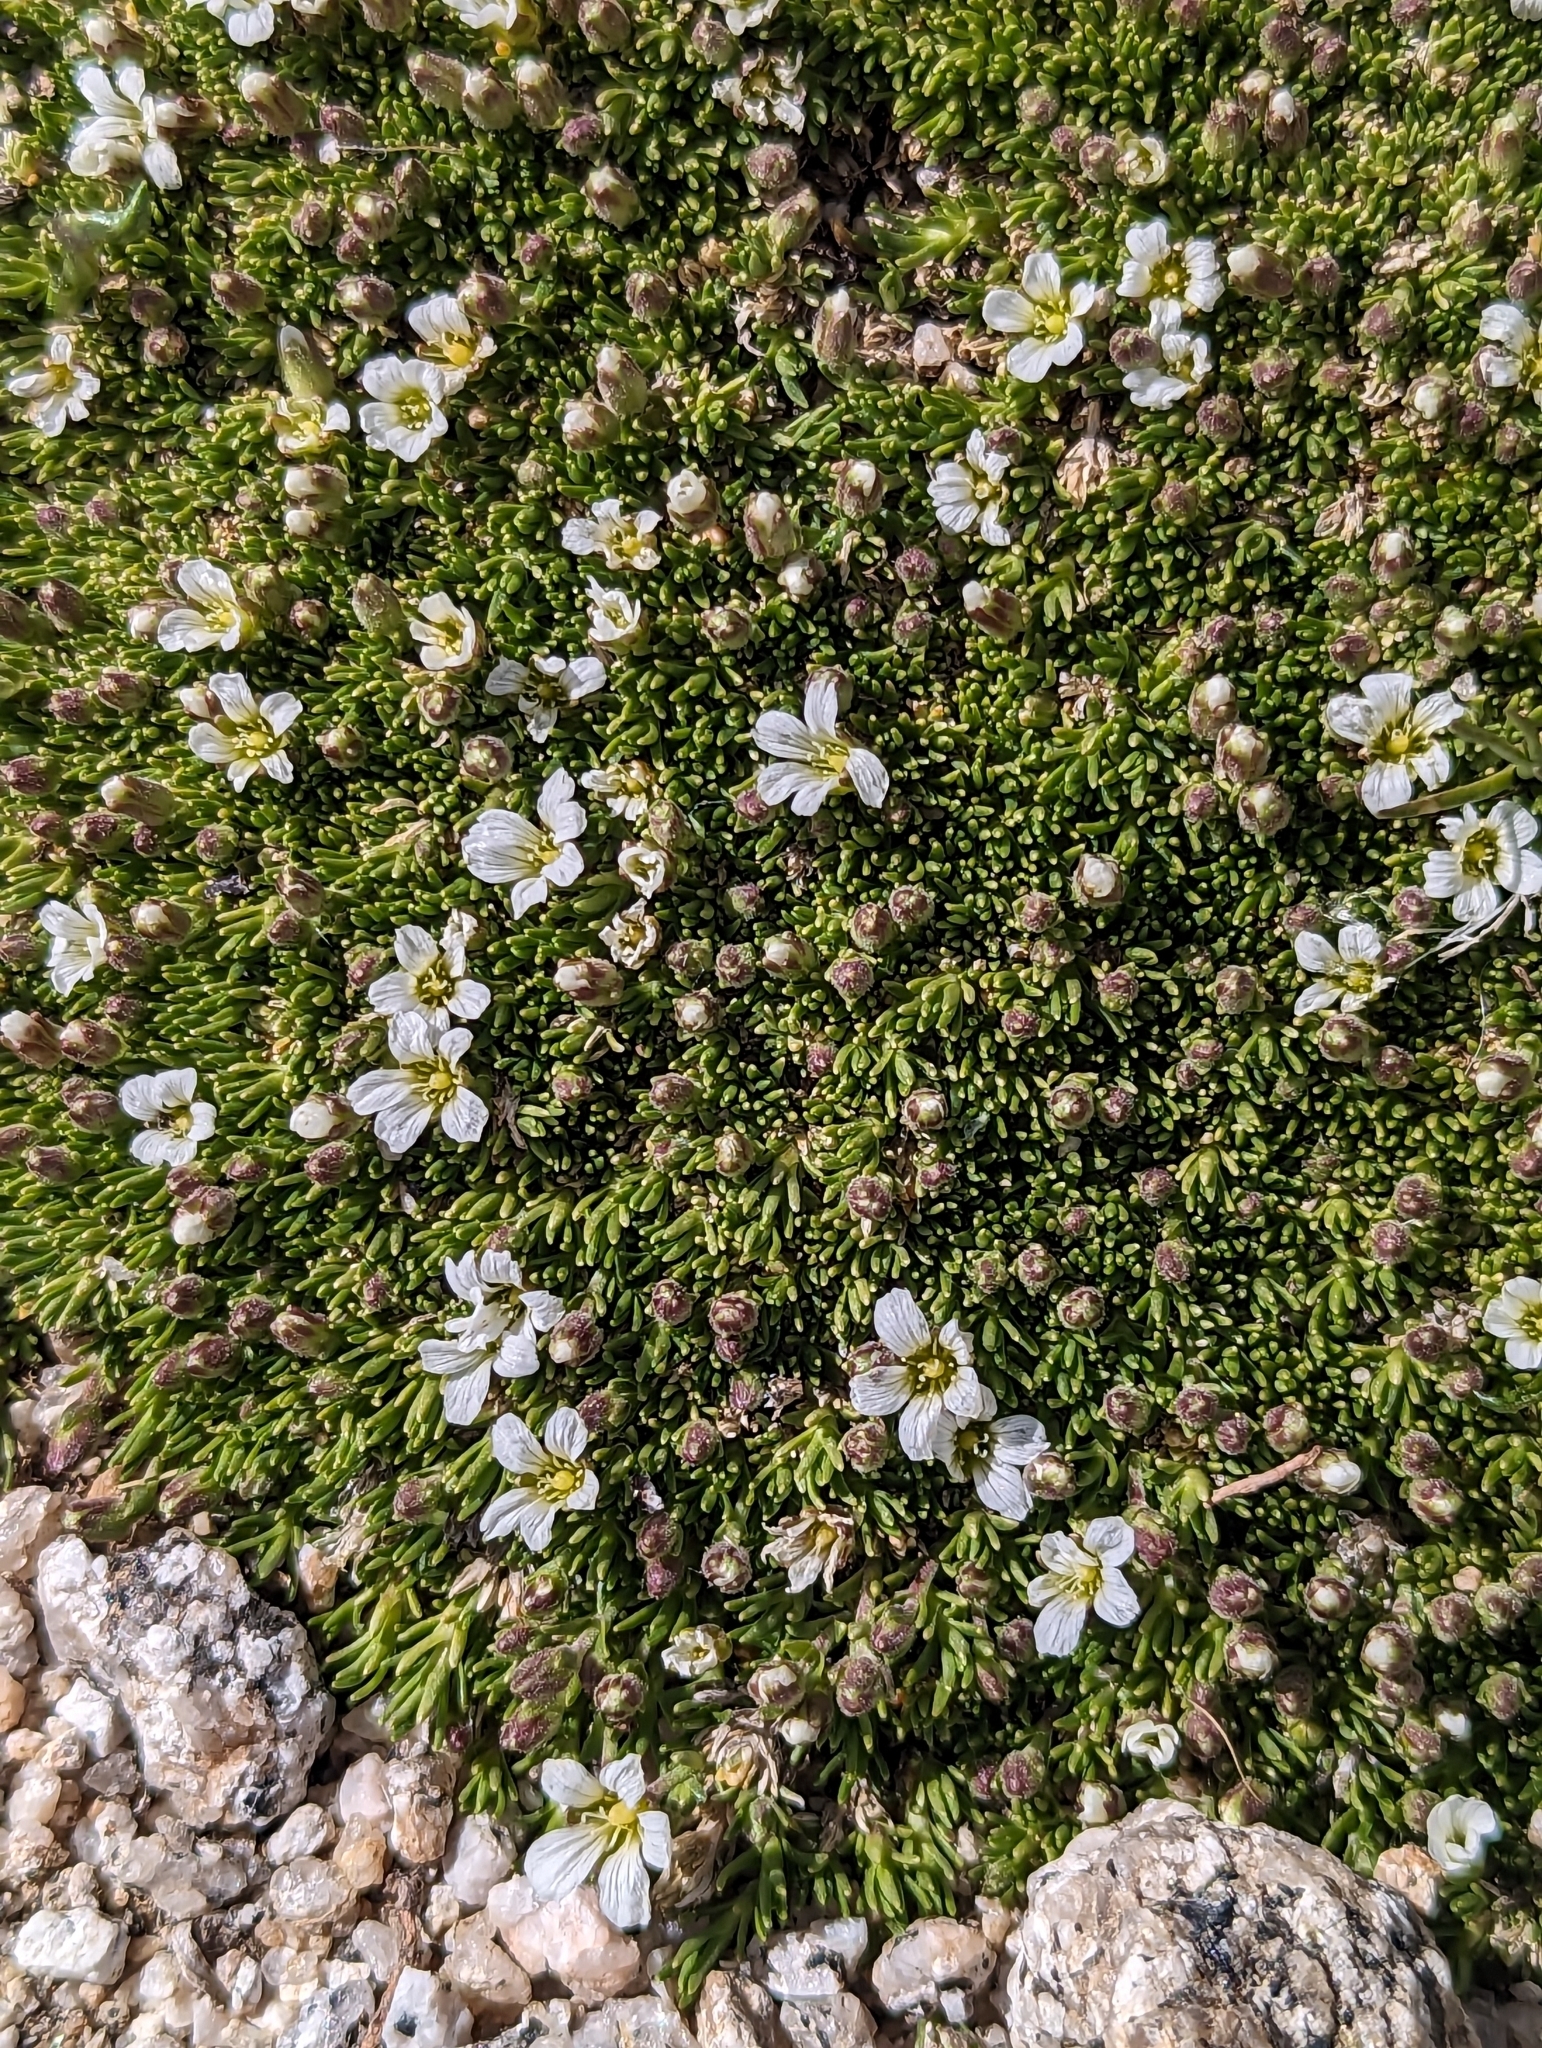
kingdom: Plantae
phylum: Tracheophyta
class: Magnoliopsida
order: Caryophyllales
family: Caryophyllaceae
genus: Cherleria
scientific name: Cherleria obtusiloba
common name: Alpine stitchwort
